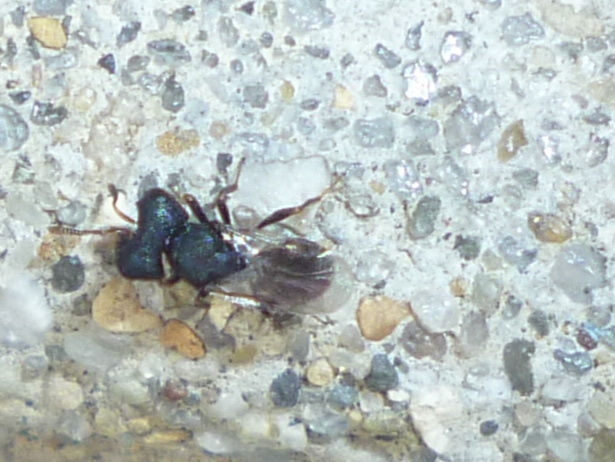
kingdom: Animalia
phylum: Arthropoda
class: Insecta
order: Hymenoptera
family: Pteromalidae
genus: Cratomus
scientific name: Cratomus megacephalus
